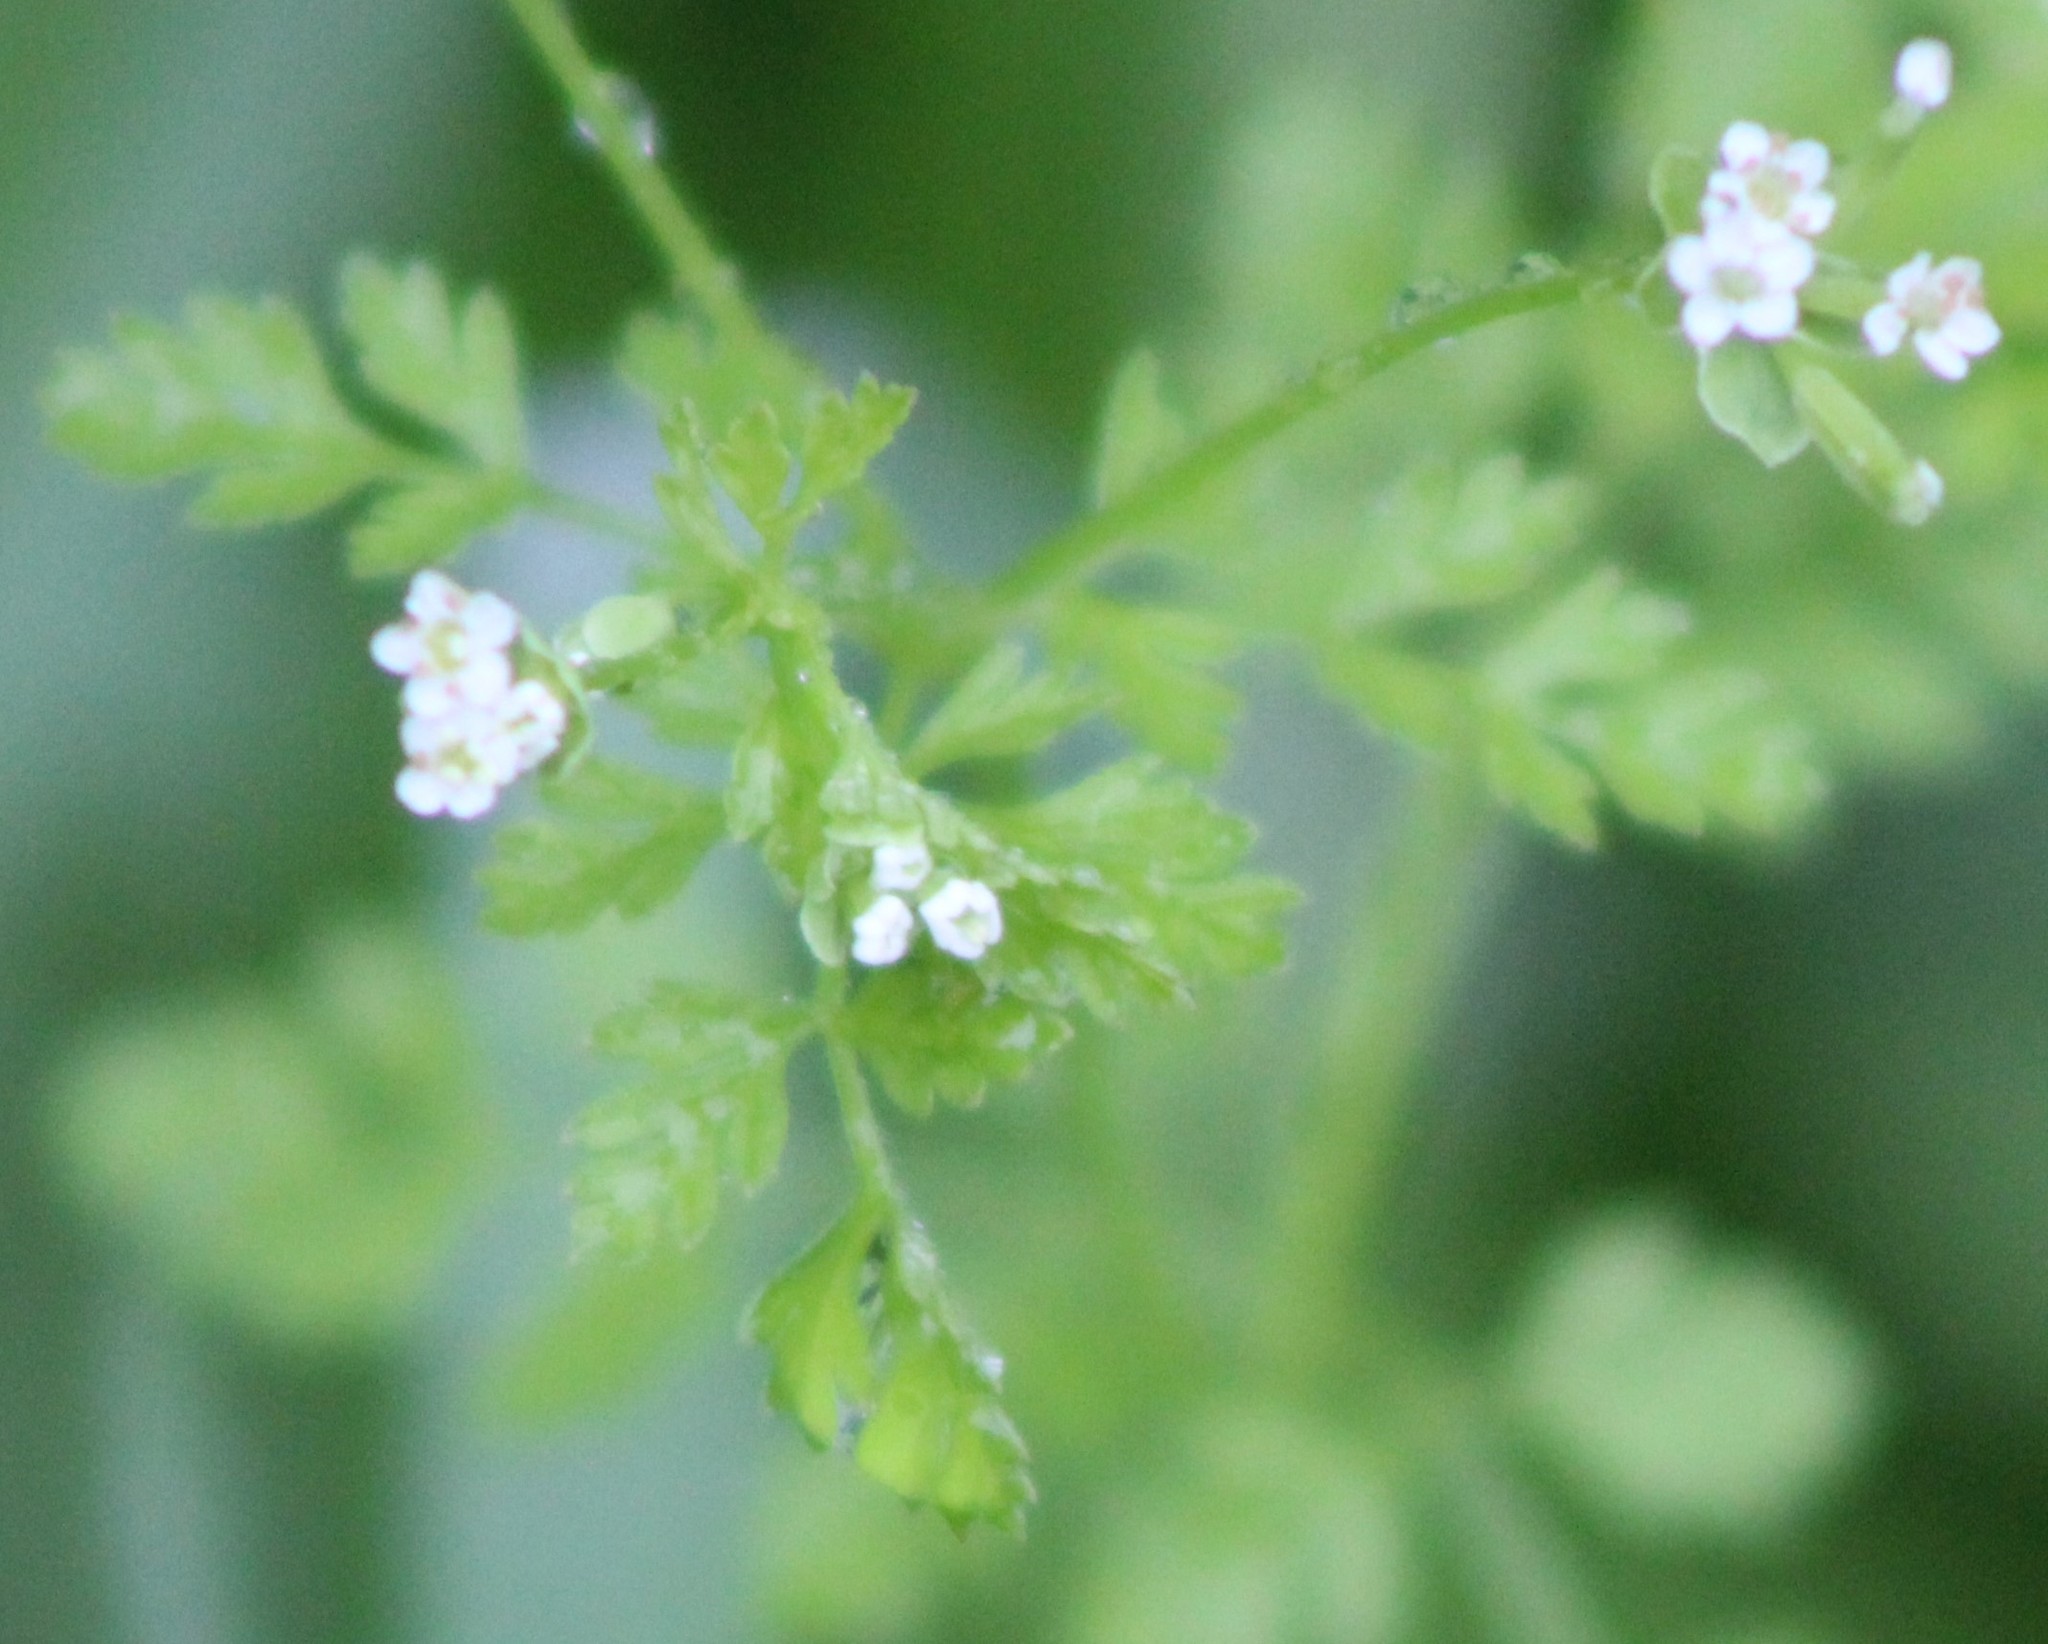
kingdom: Plantae
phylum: Tracheophyta
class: Magnoliopsida
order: Apiales
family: Apiaceae
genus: Chaerophyllum
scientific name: Chaerophyllum tainturieri
